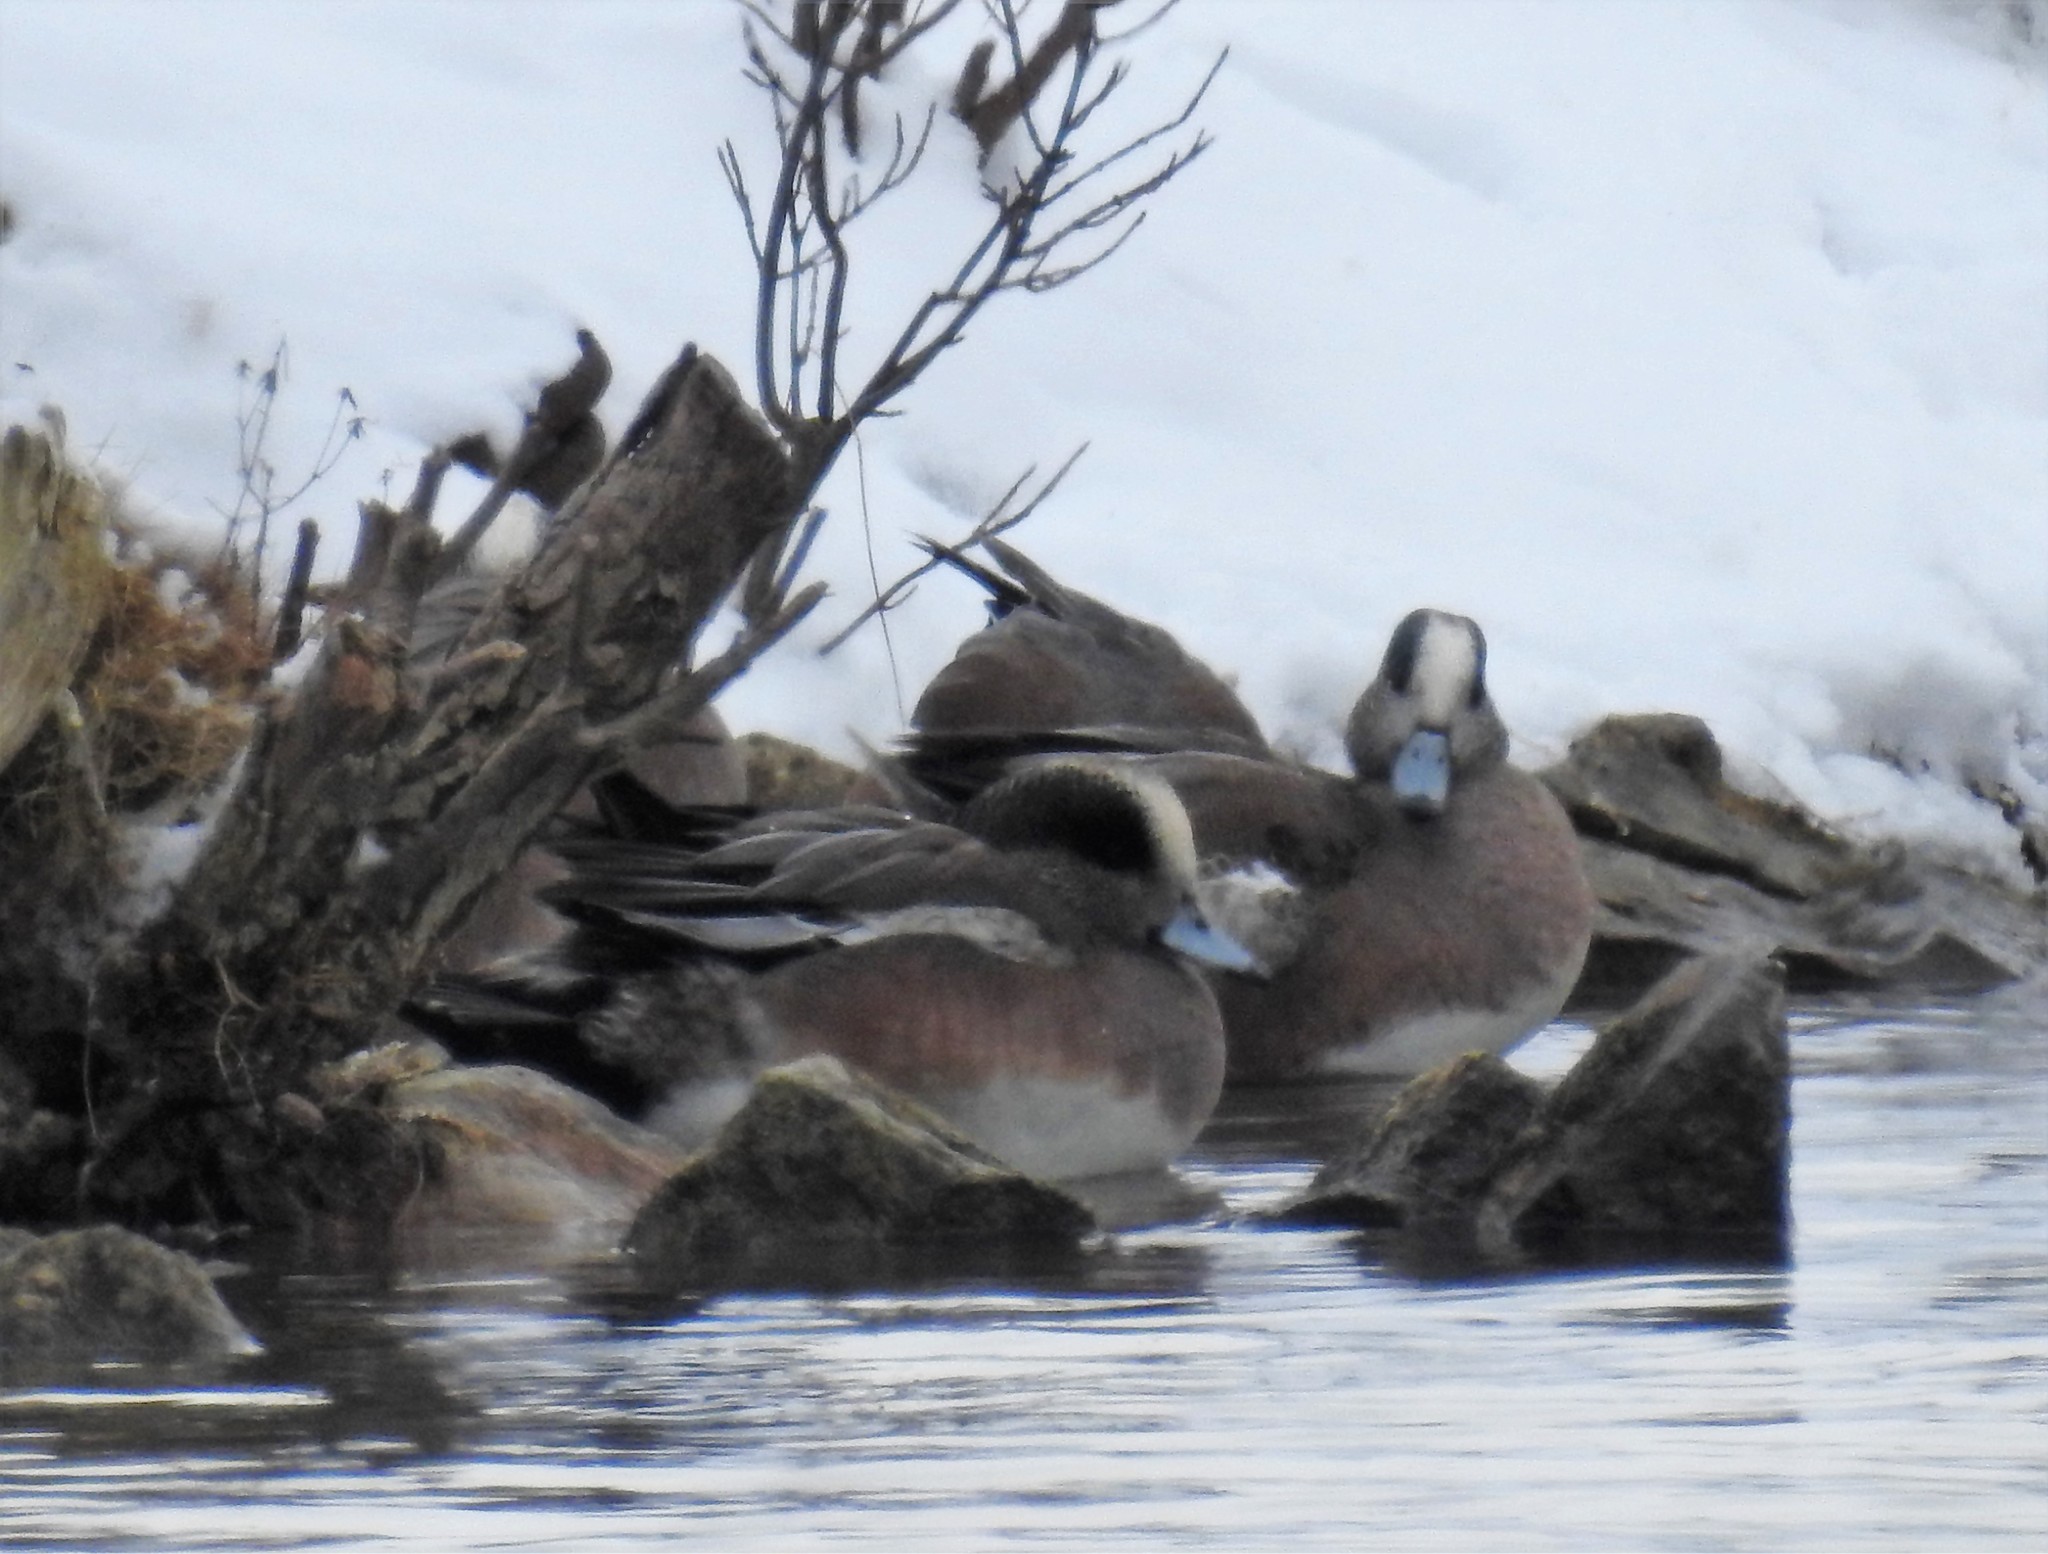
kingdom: Animalia
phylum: Chordata
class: Aves
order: Anseriformes
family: Anatidae
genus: Mareca
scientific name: Mareca americana
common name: American wigeon
